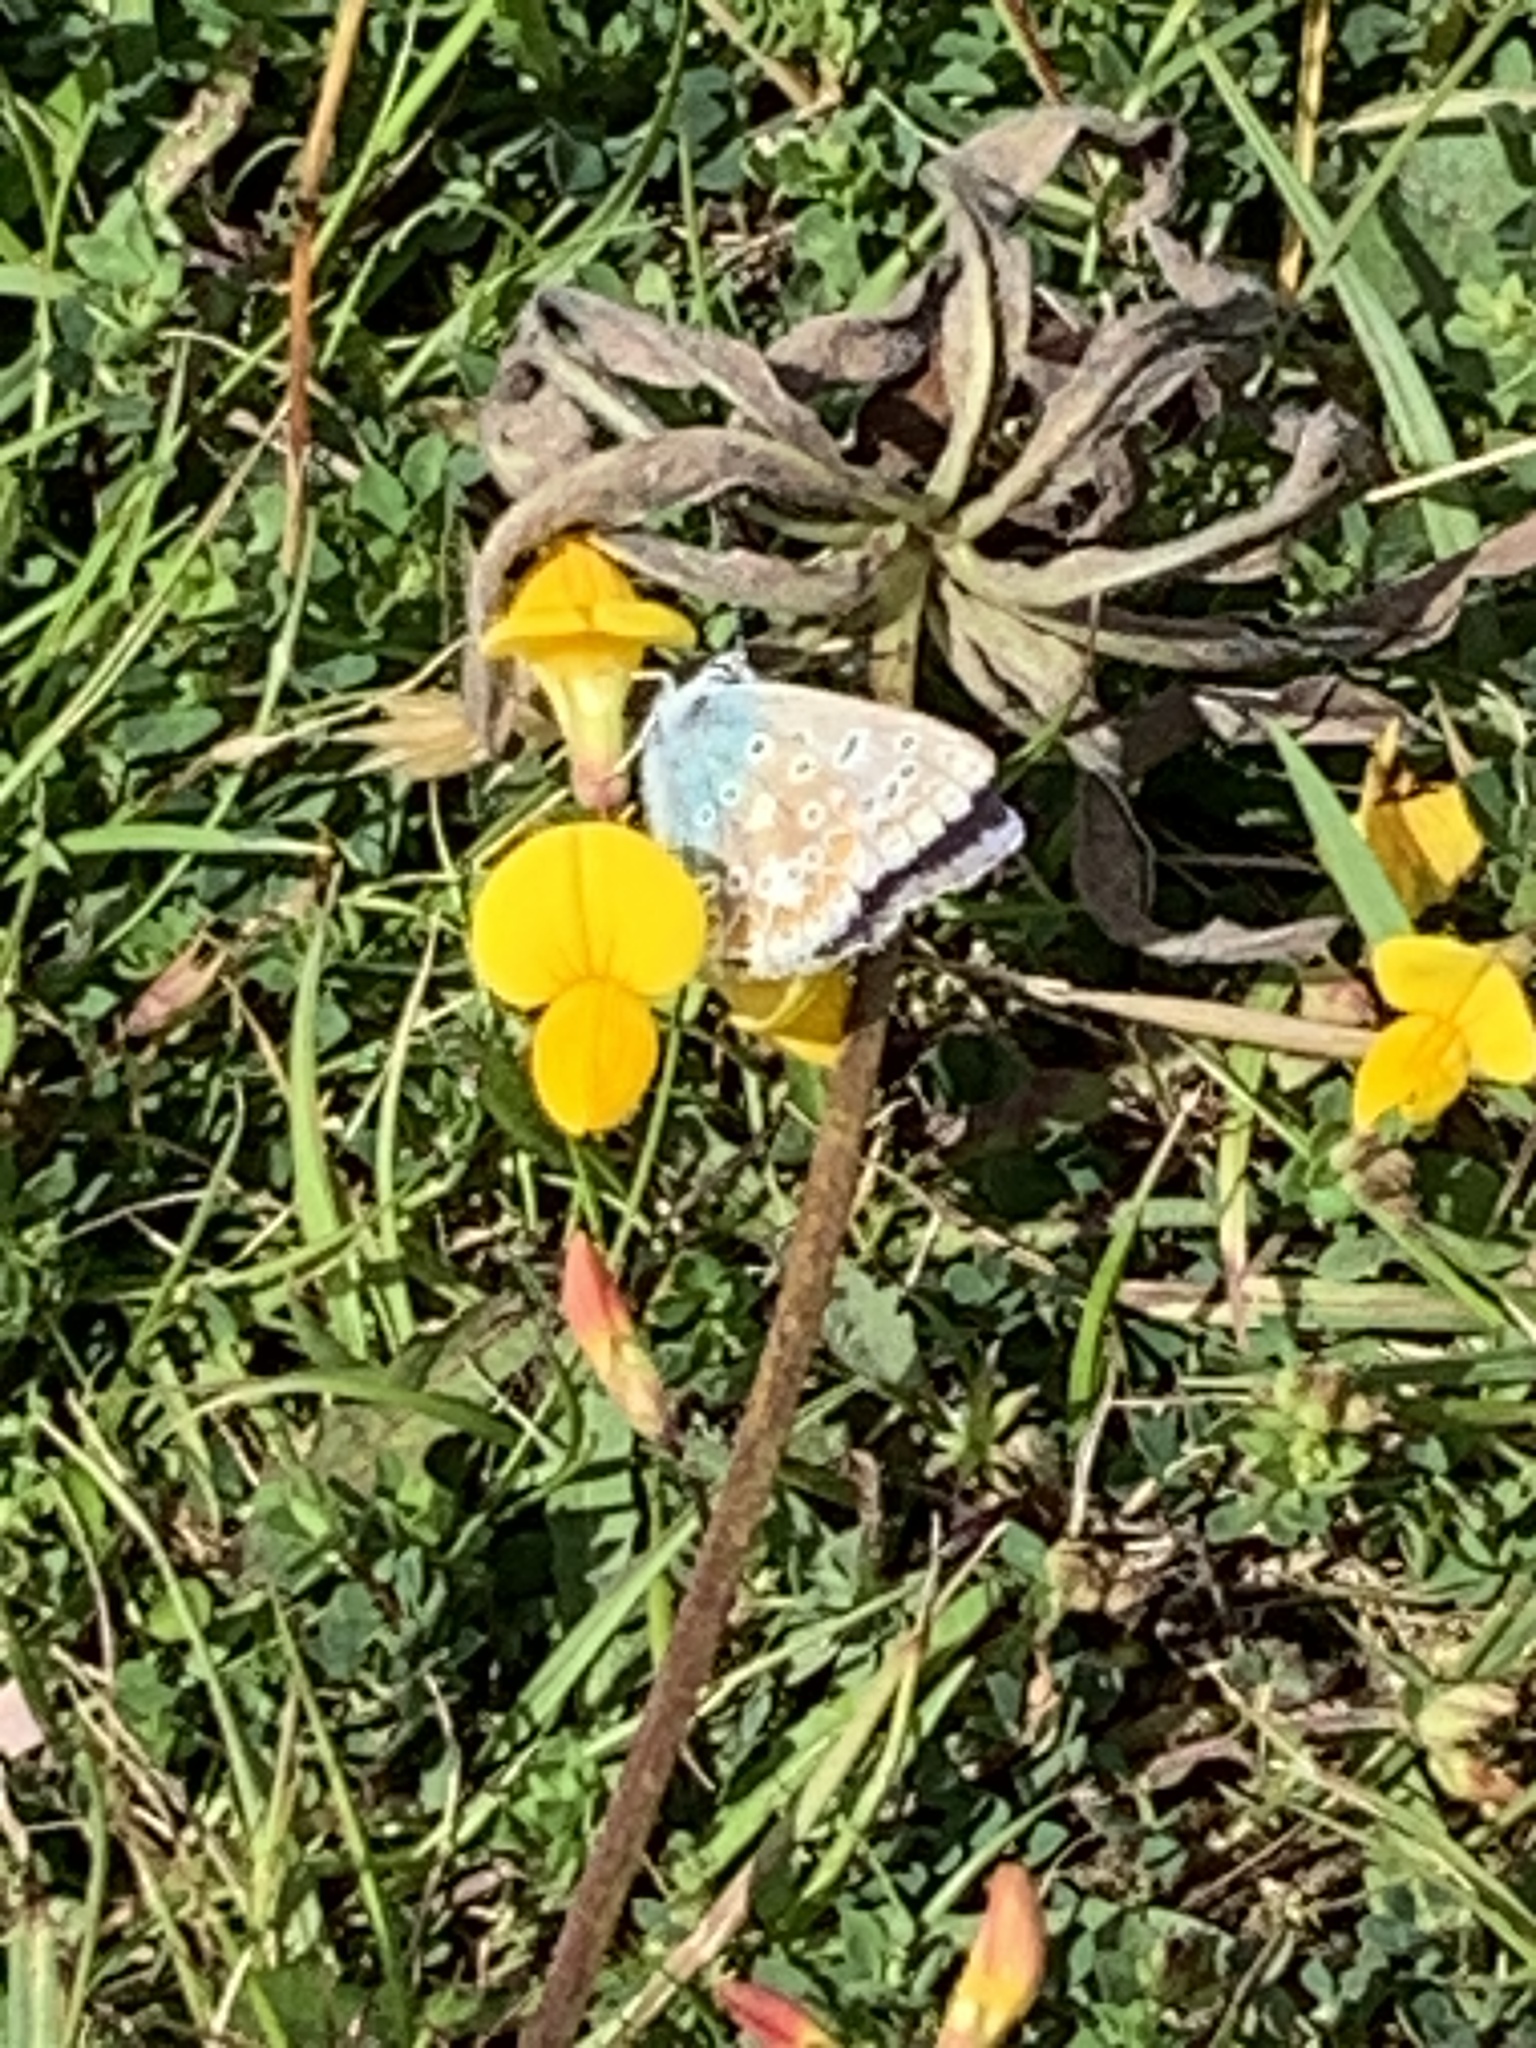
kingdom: Animalia
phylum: Arthropoda
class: Insecta
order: Lepidoptera
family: Lycaenidae
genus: Polyommatus
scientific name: Polyommatus icarus
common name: Common blue
